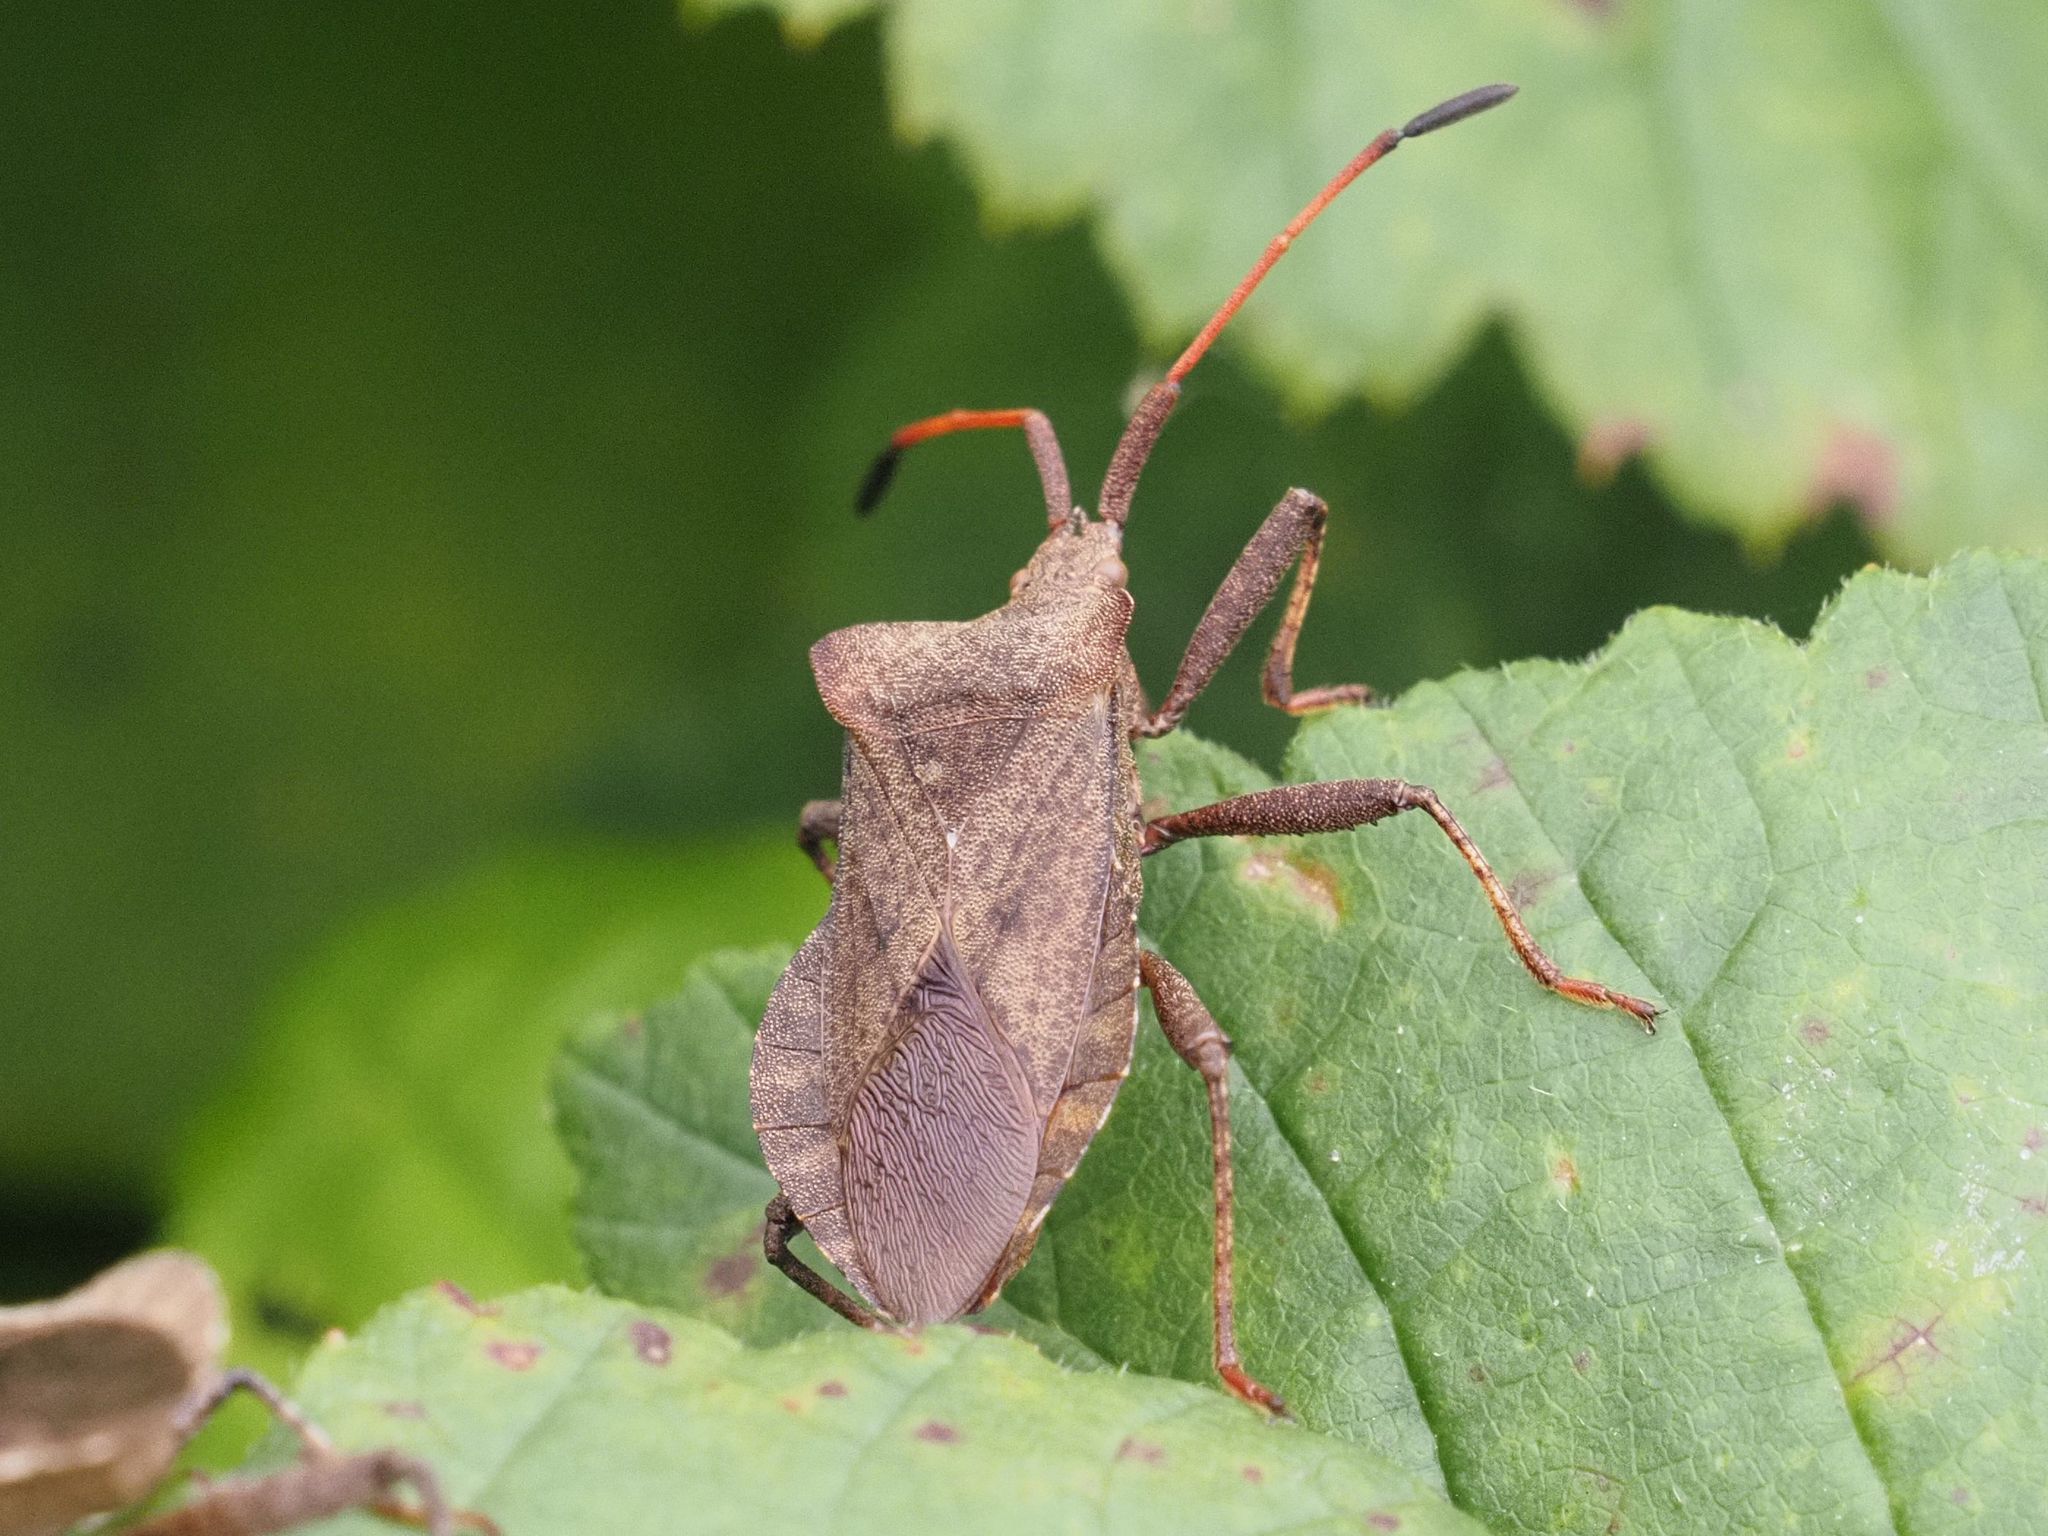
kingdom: Animalia
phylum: Arthropoda
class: Insecta
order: Hemiptera
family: Coreidae
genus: Coreus
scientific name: Coreus marginatus
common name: Dock bug
